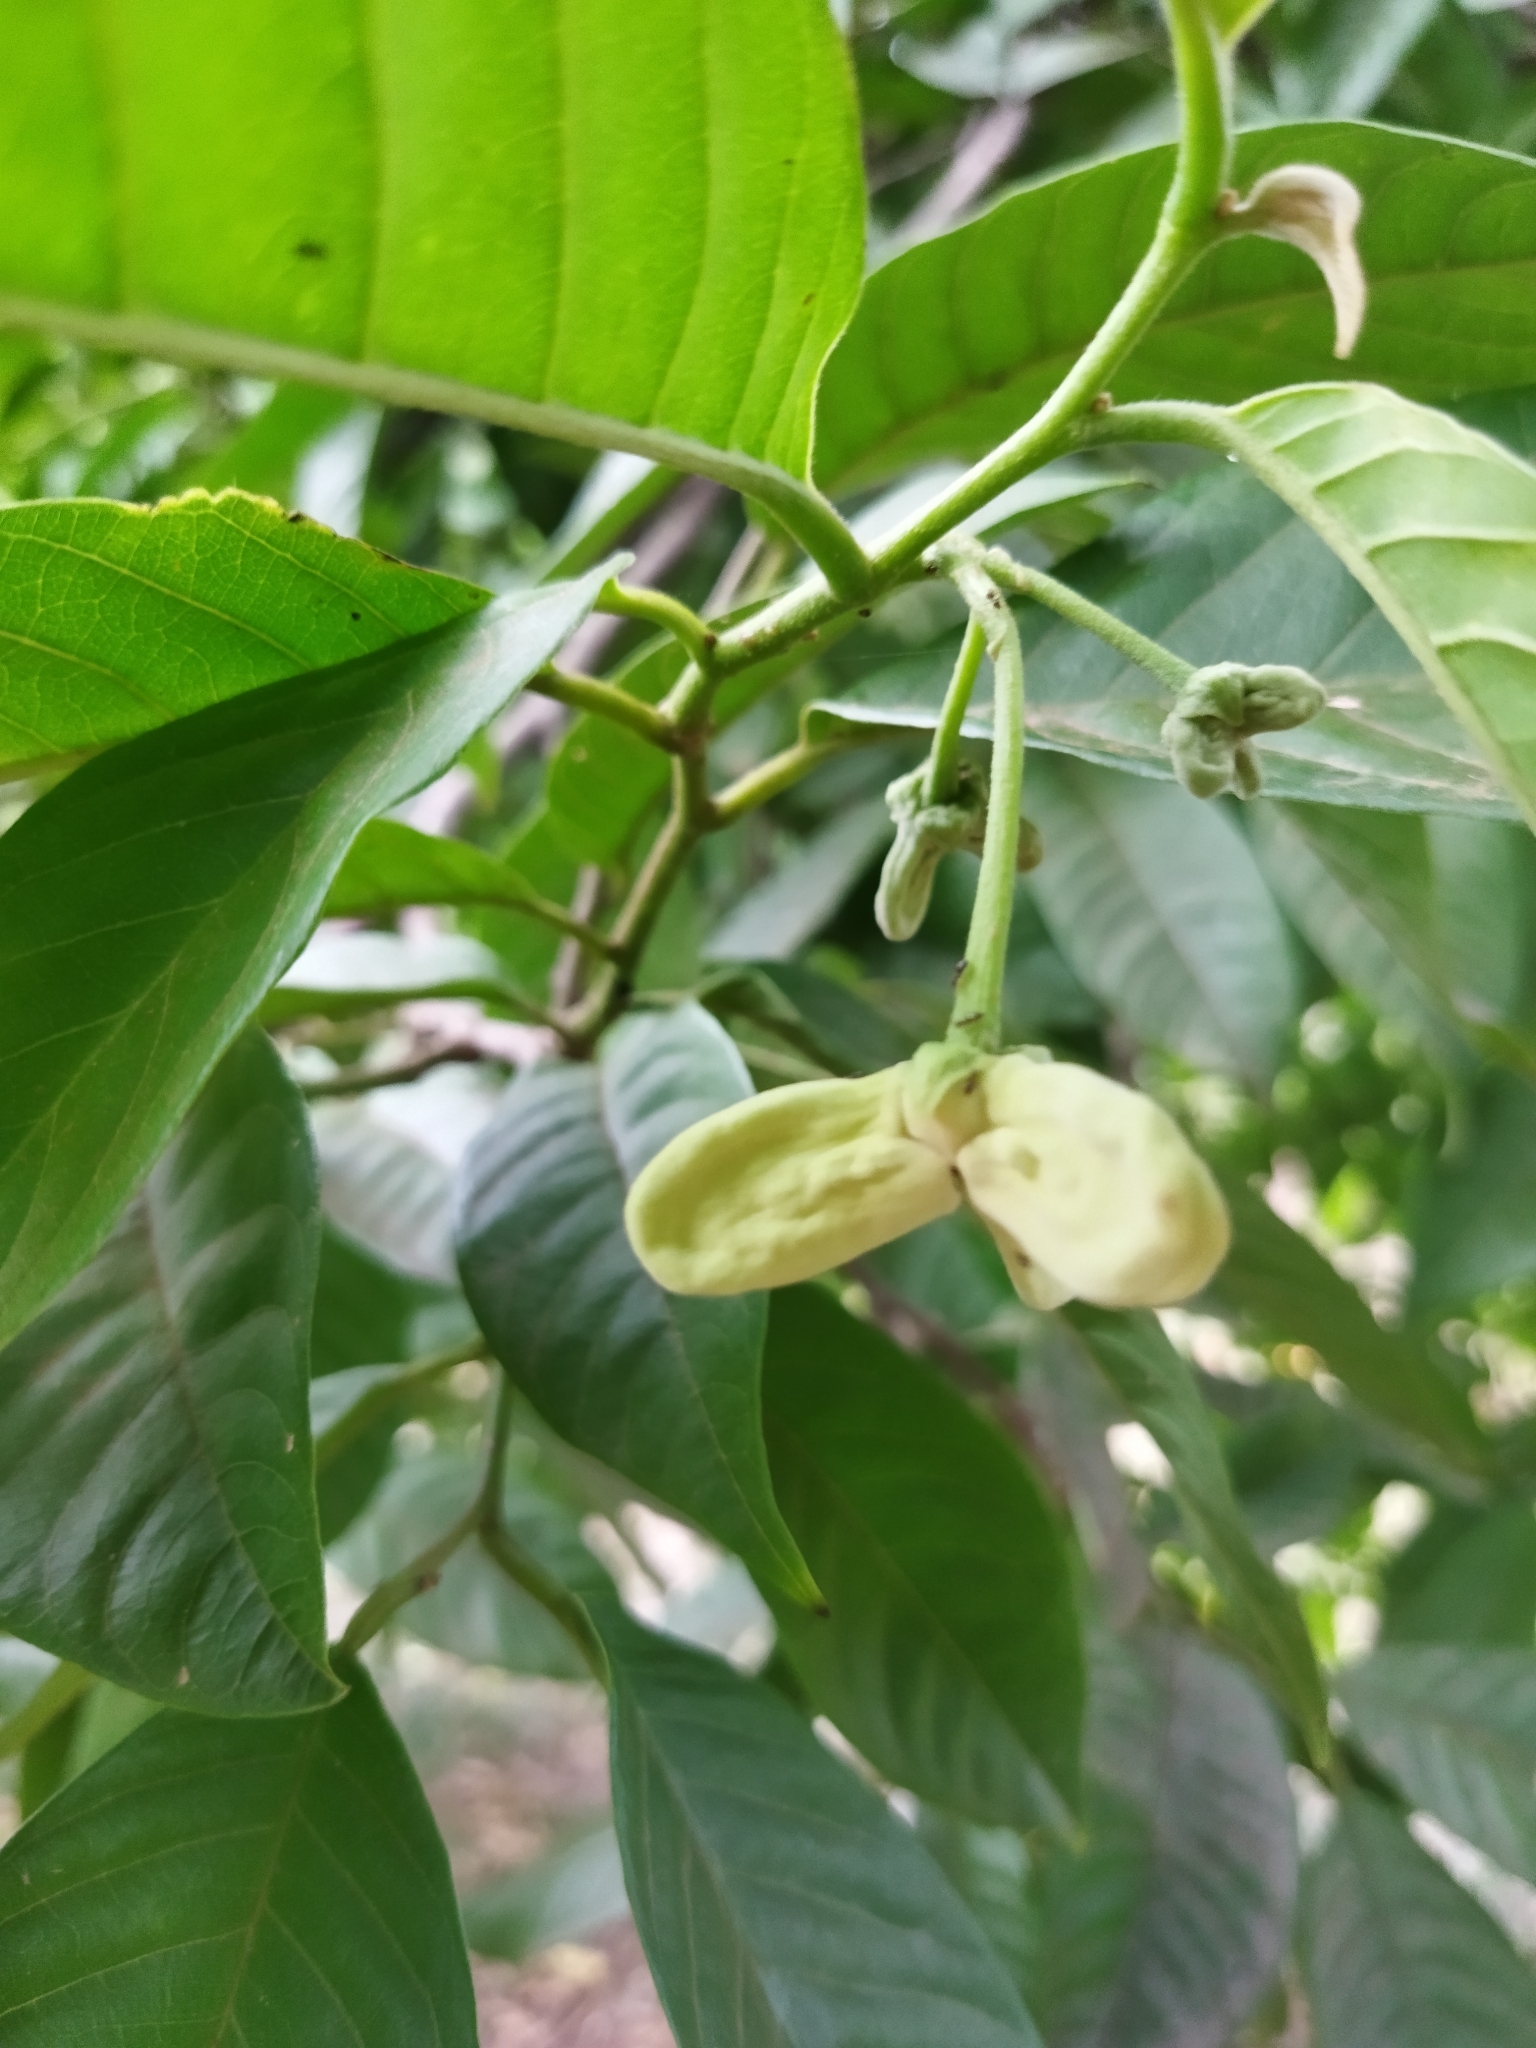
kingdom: Plantae
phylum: Tracheophyta
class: Magnoliopsida
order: Magnoliales
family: Annonaceae
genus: Annona
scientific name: Annona mucosa
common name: Sugar apple
